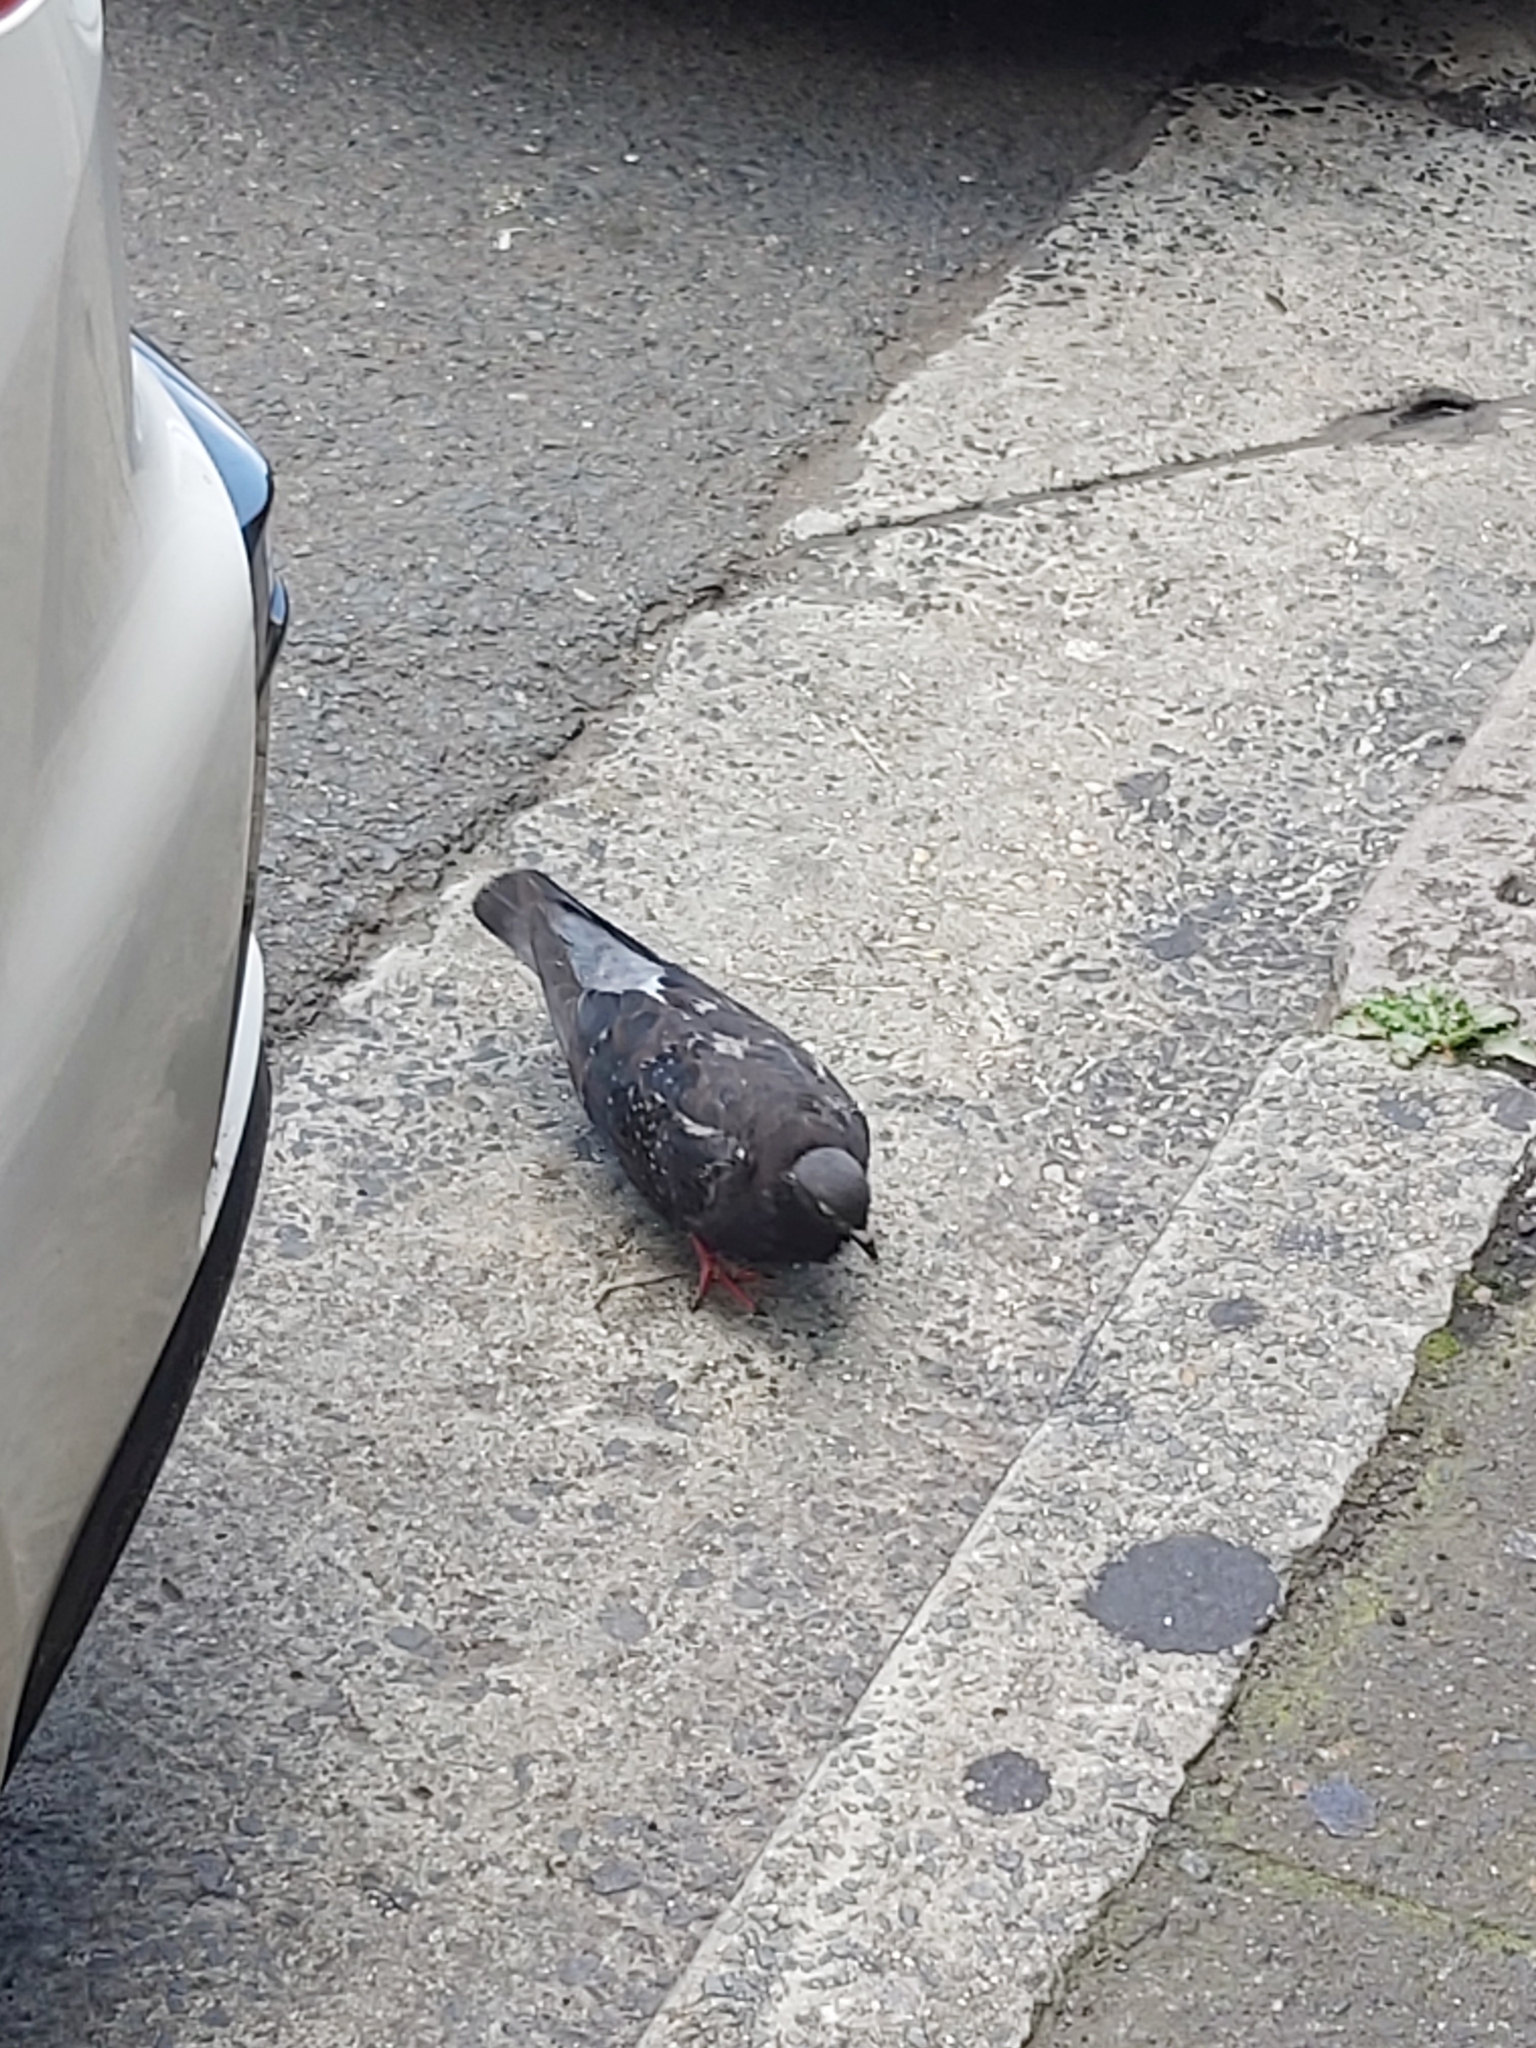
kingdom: Animalia
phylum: Chordata
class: Aves
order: Columbiformes
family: Columbidae
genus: Columba
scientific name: Columba livia
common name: Rock pigeon
